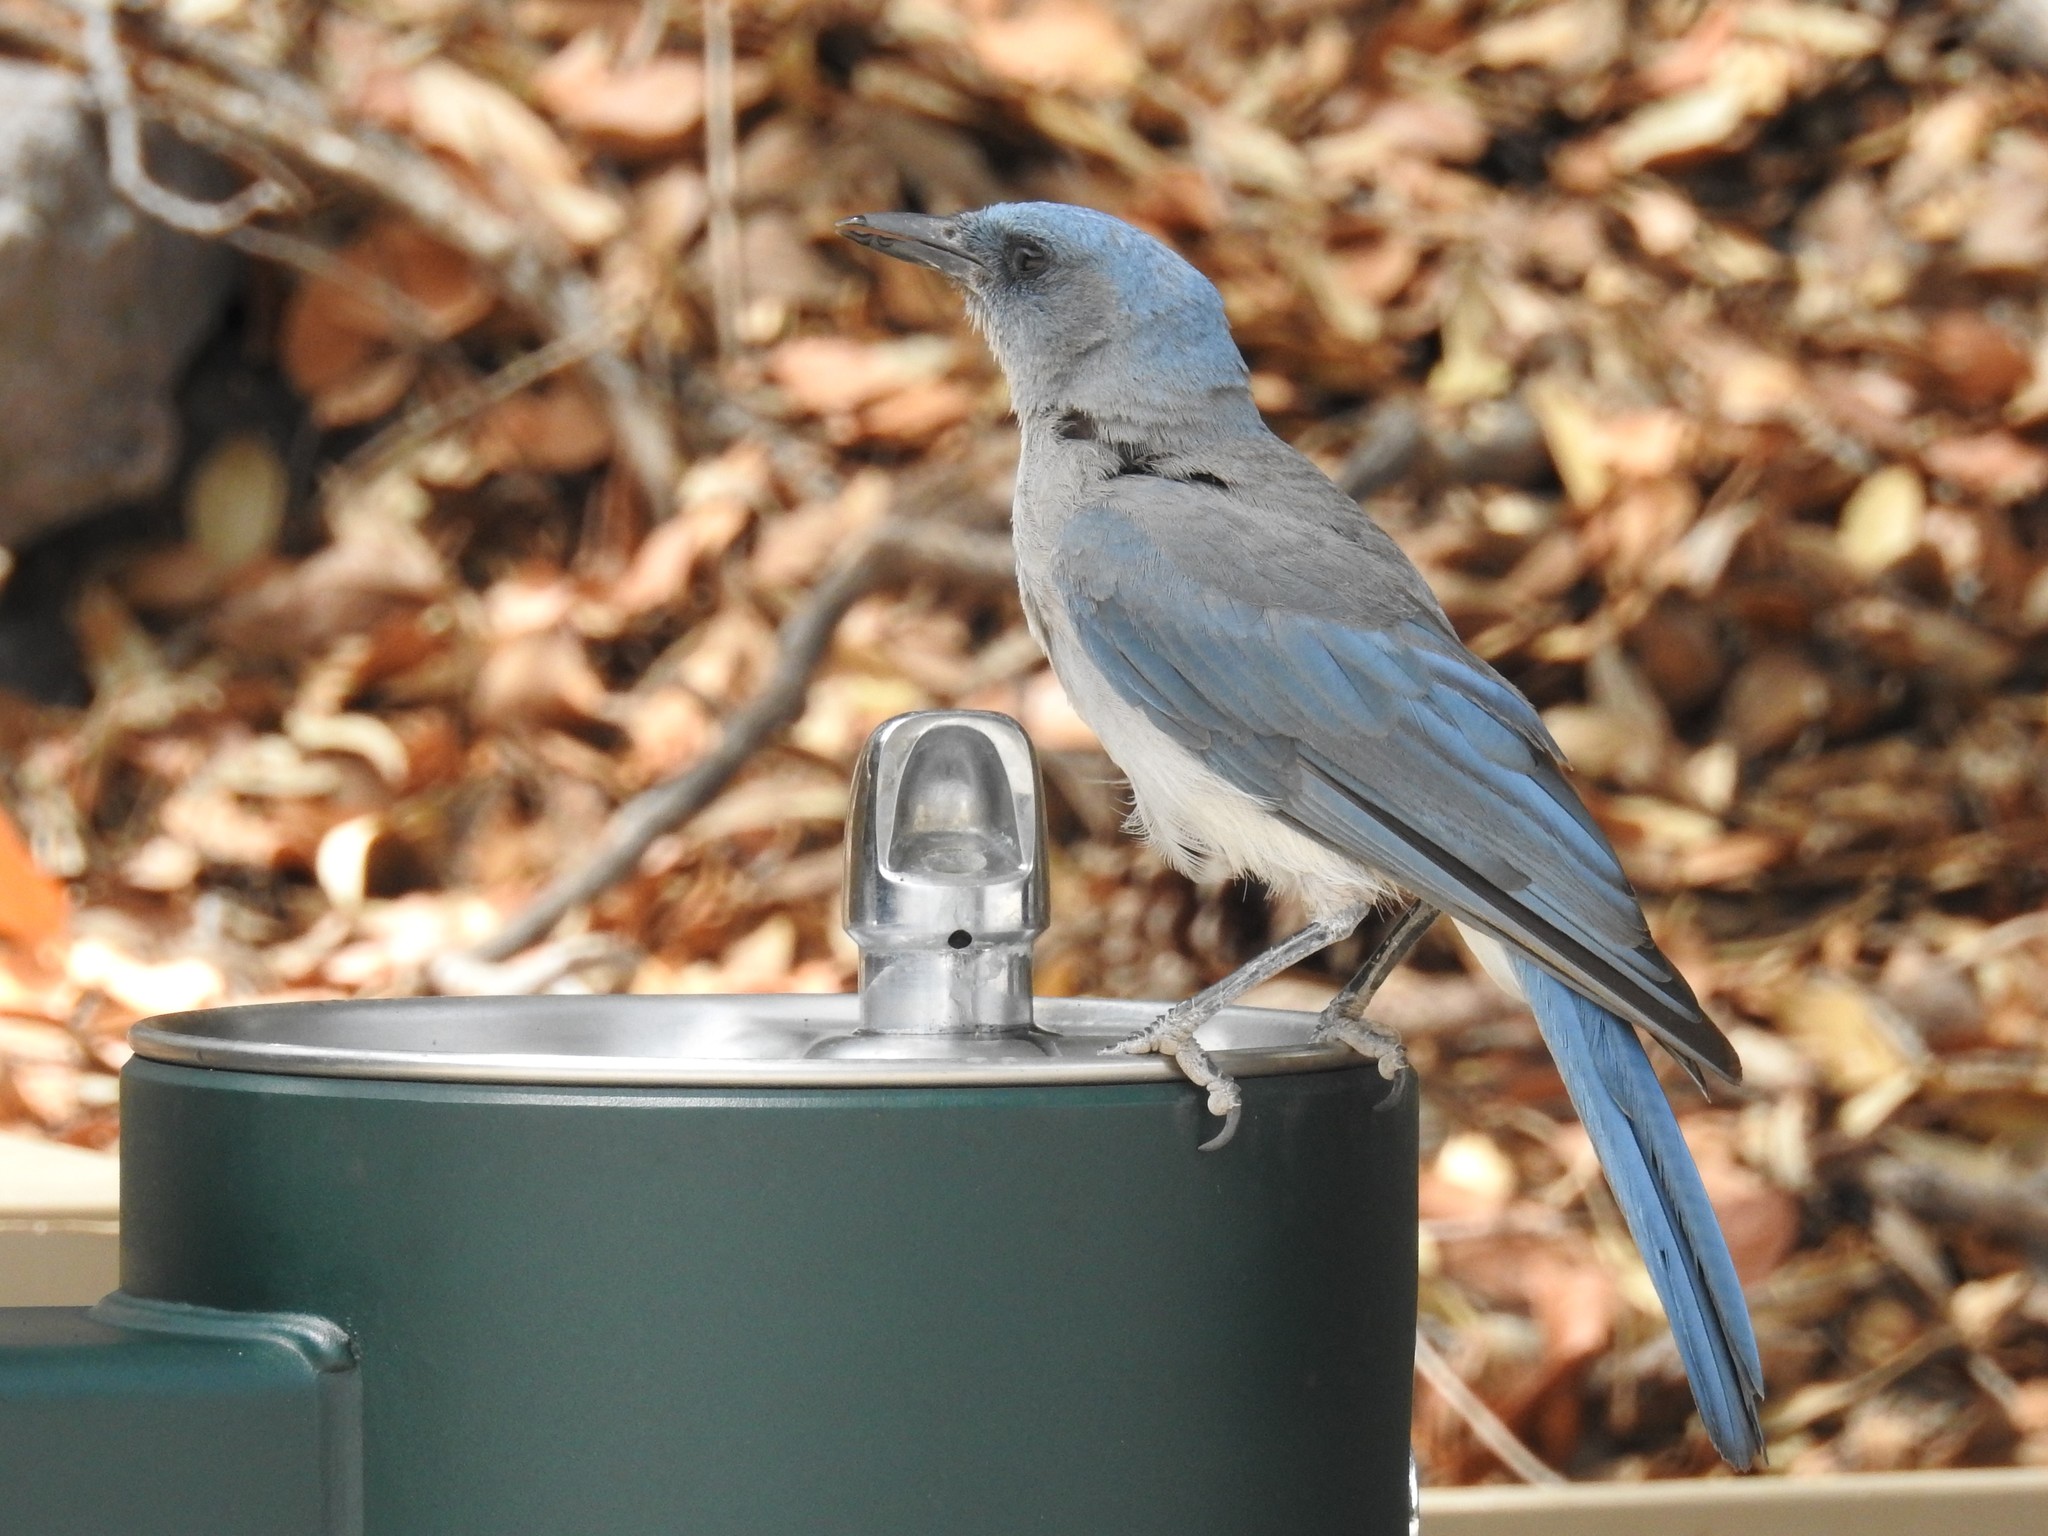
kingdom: Animalia
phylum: Chordata
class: Aves
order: Passeriformes
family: Corvidae
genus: Aphelocoma
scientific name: Aphelocoma wollweberi
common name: Mexican jay
